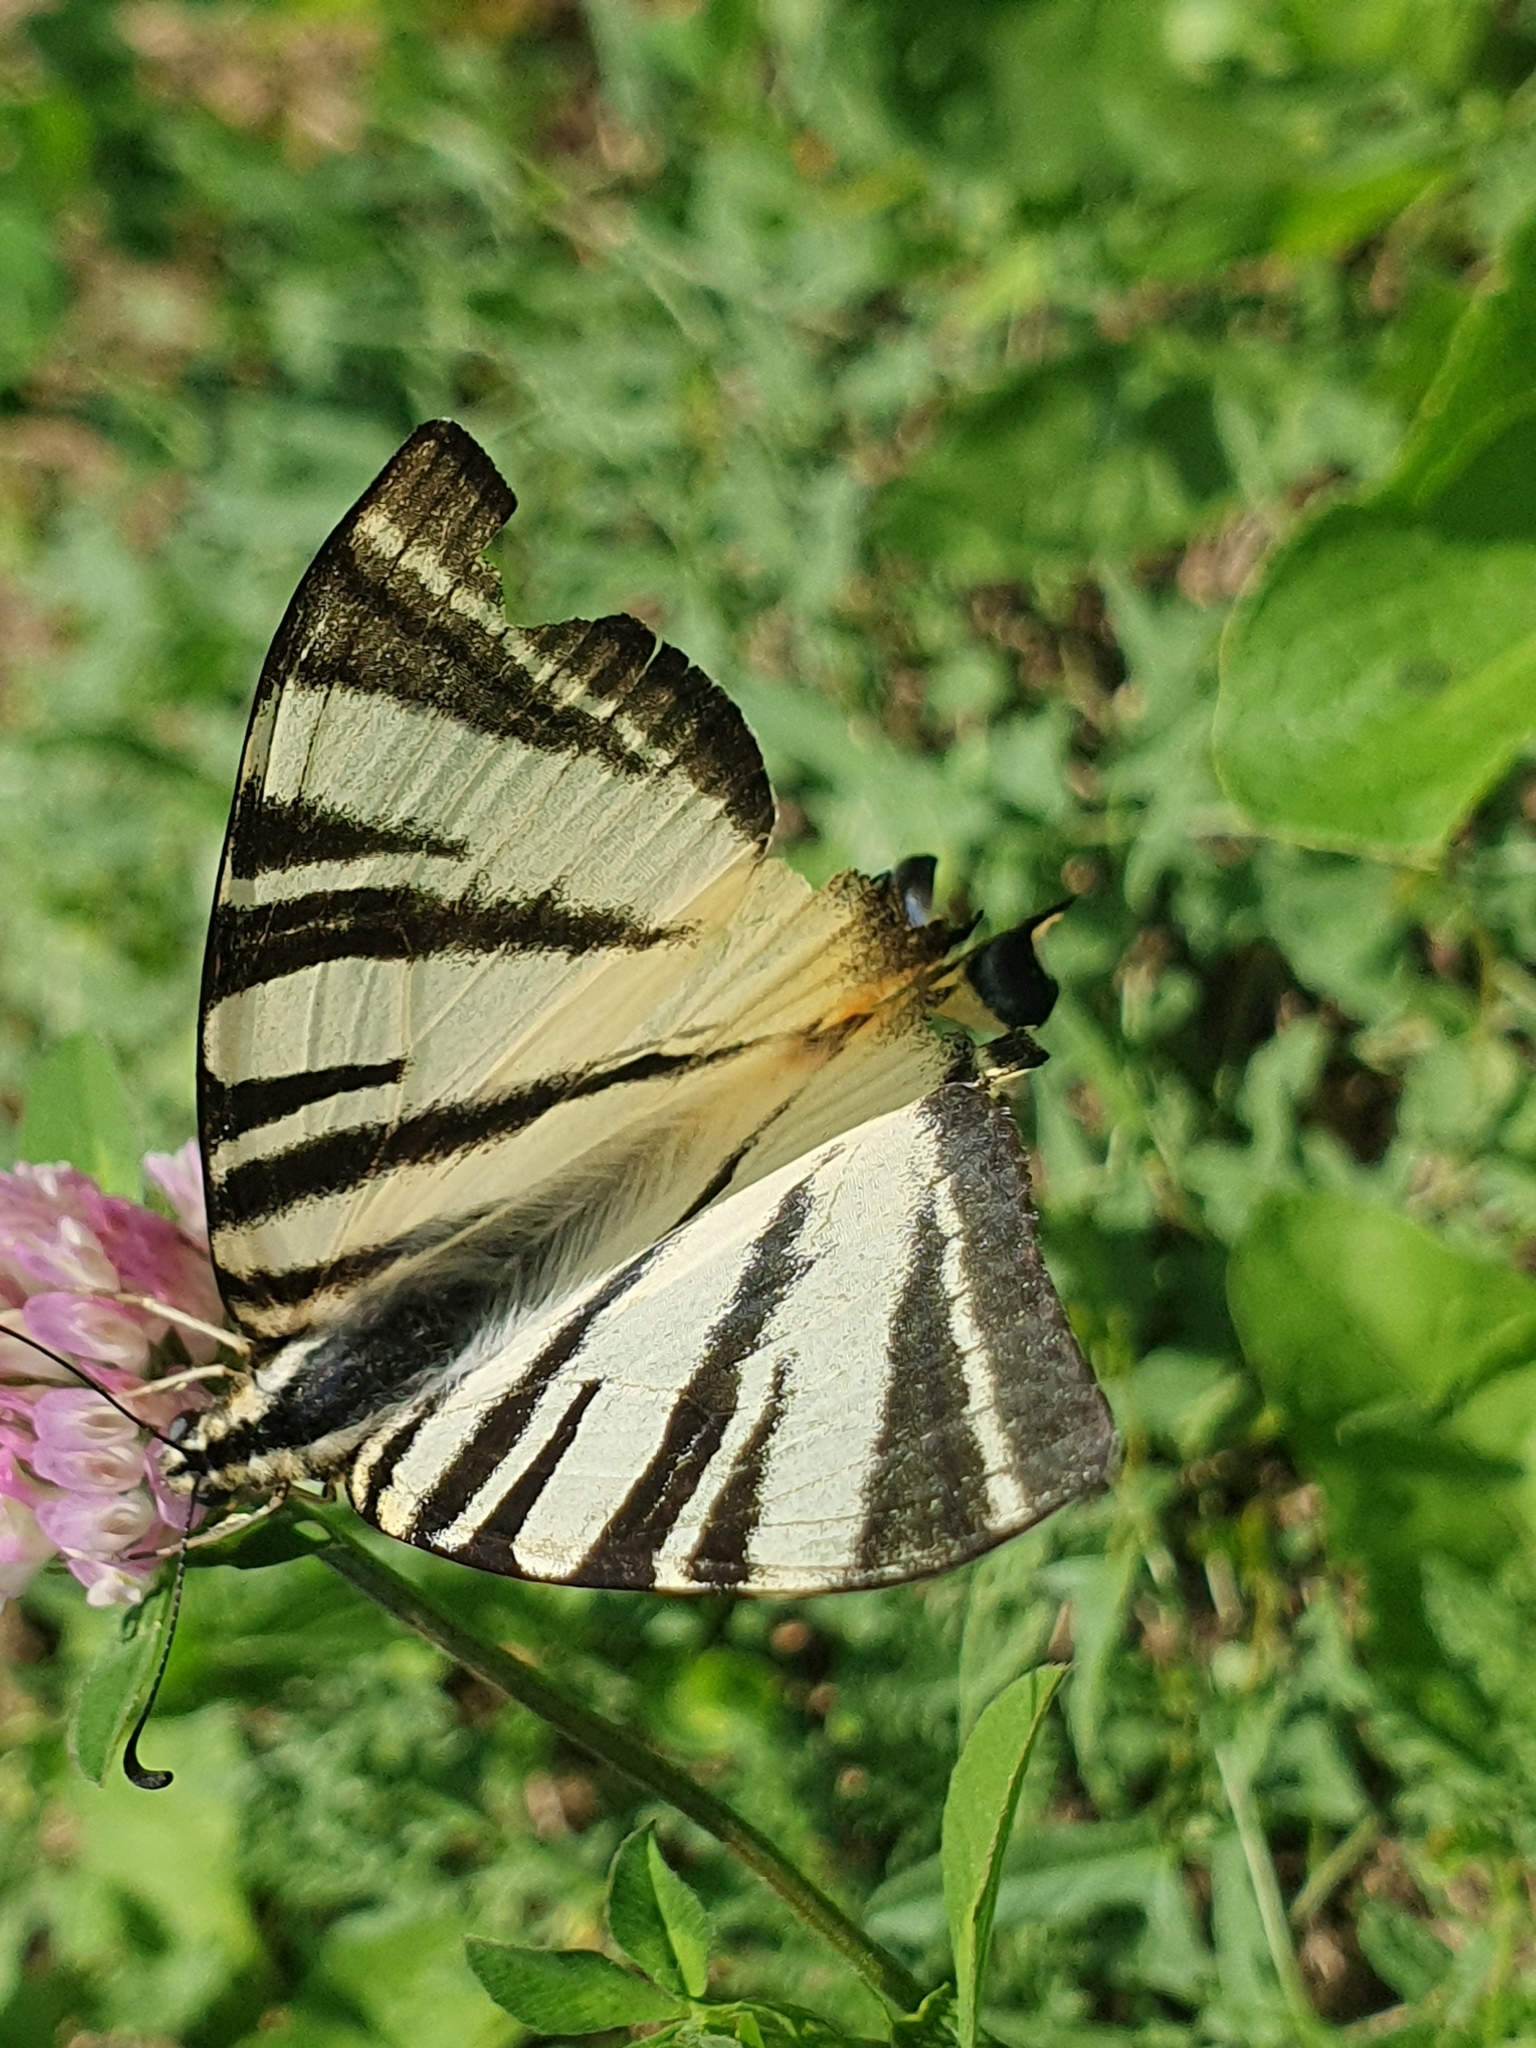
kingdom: Animalia
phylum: Arthropoda
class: Insecta
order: Lepidoptera
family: Papilionidae
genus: Iphiclides
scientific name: Iphiclides podalirius
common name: Scarce swallowtail
